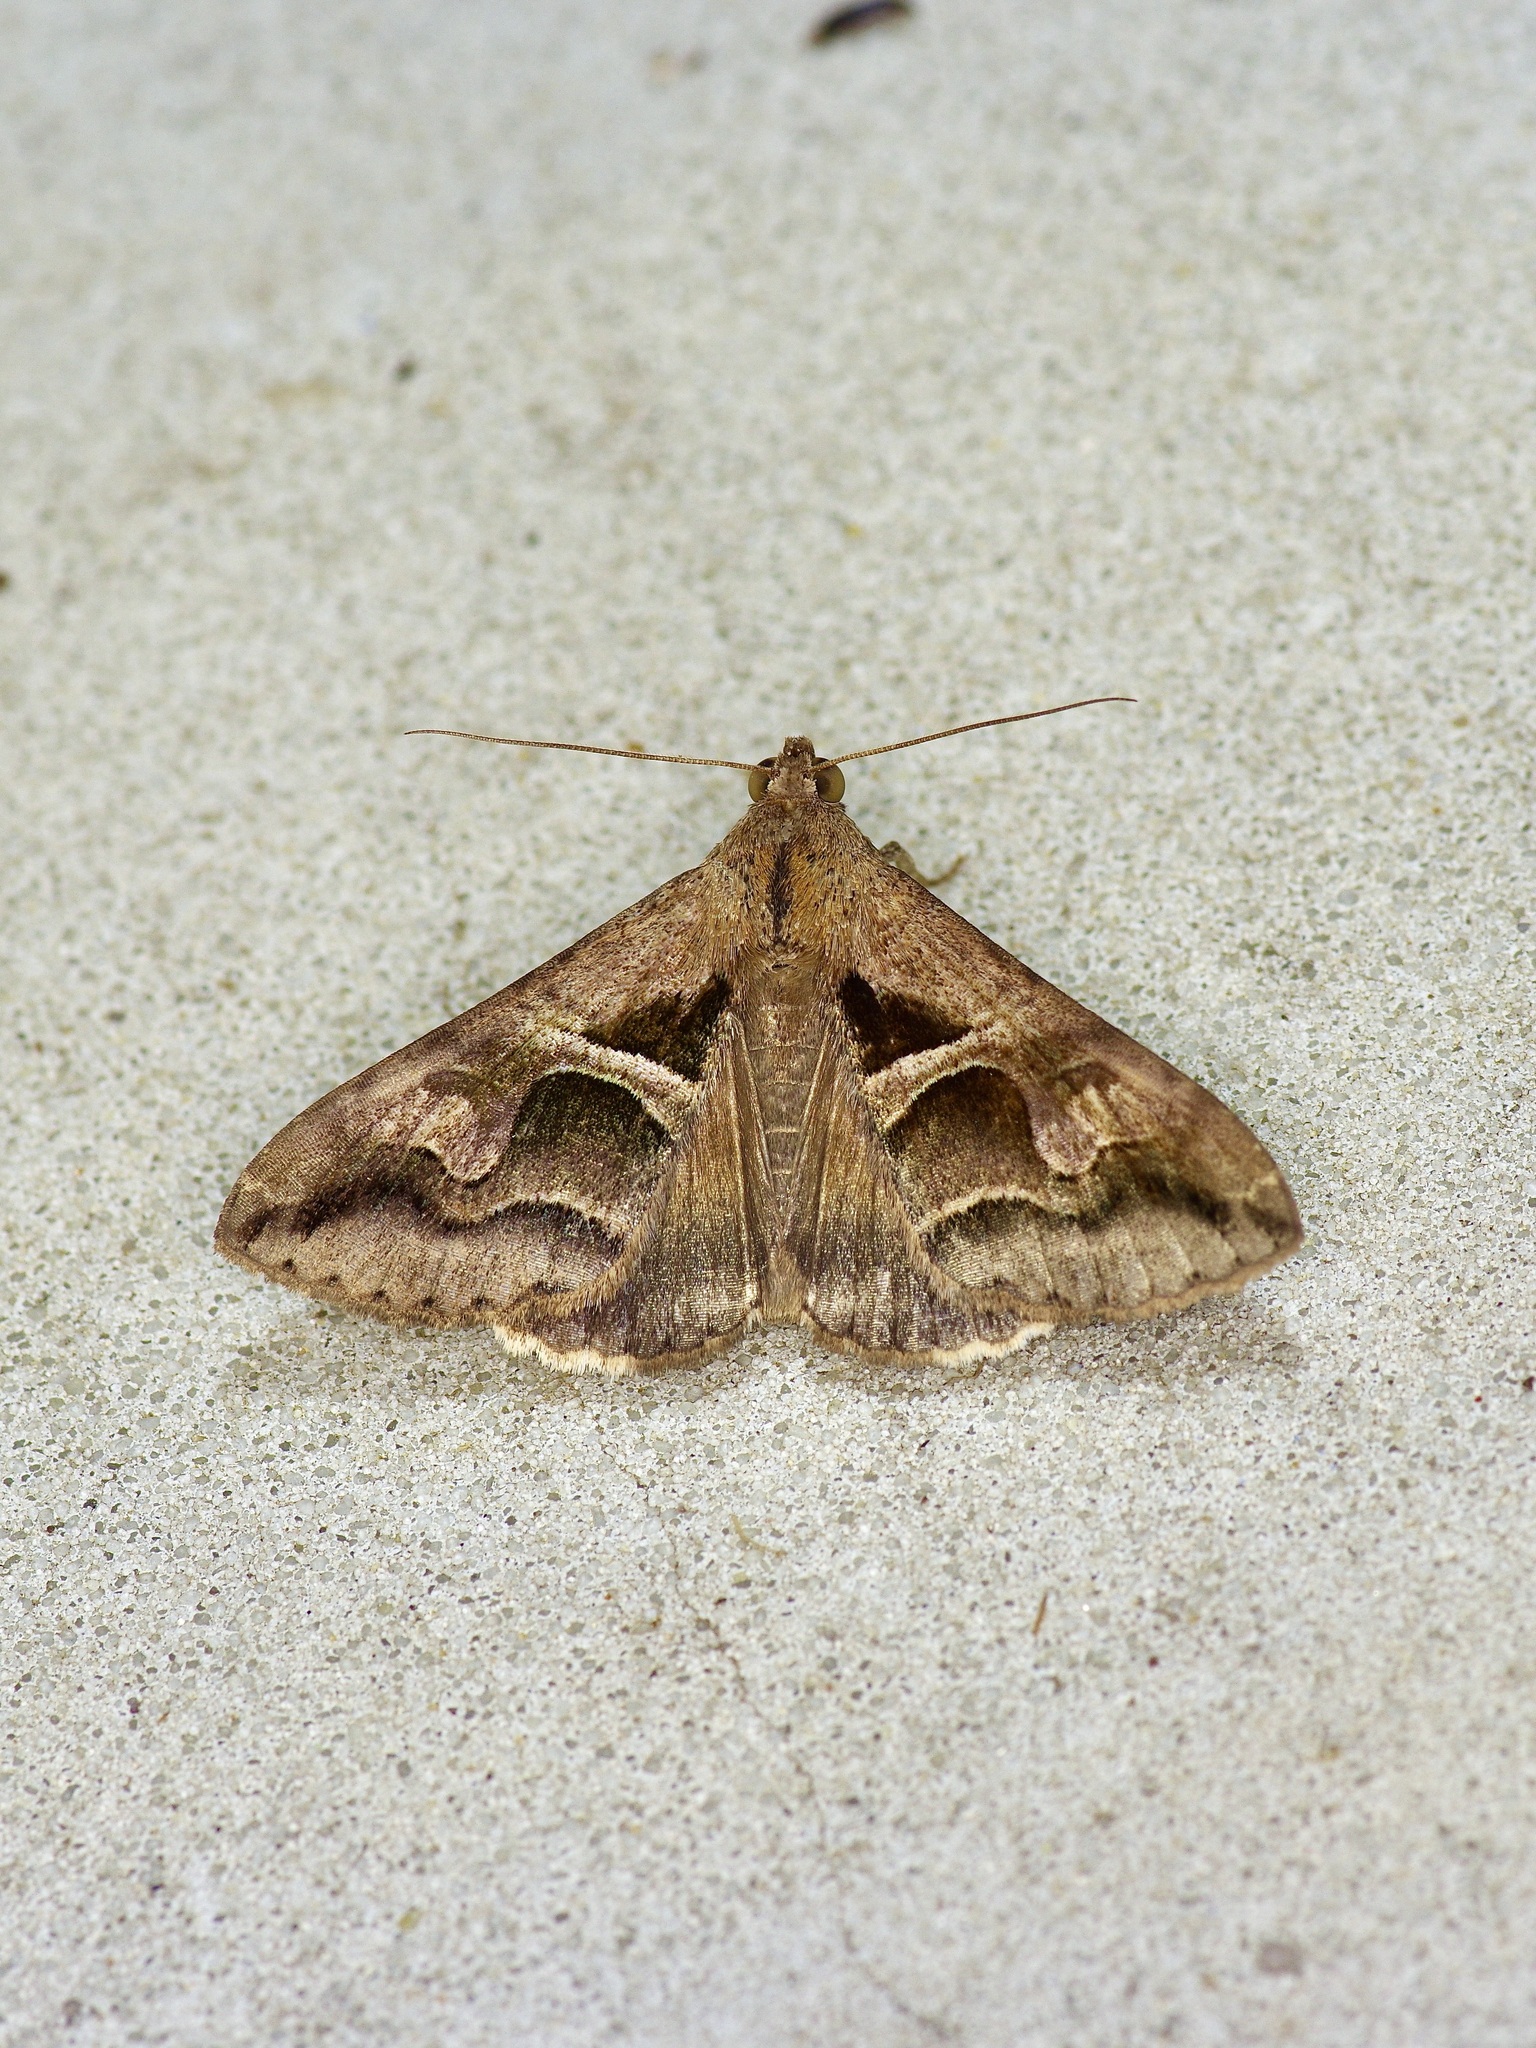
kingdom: Animalia
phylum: Arthropoda
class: Insecta
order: Lepidoptera
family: Erebidae
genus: Melipotis
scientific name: Melipotis cellaris
